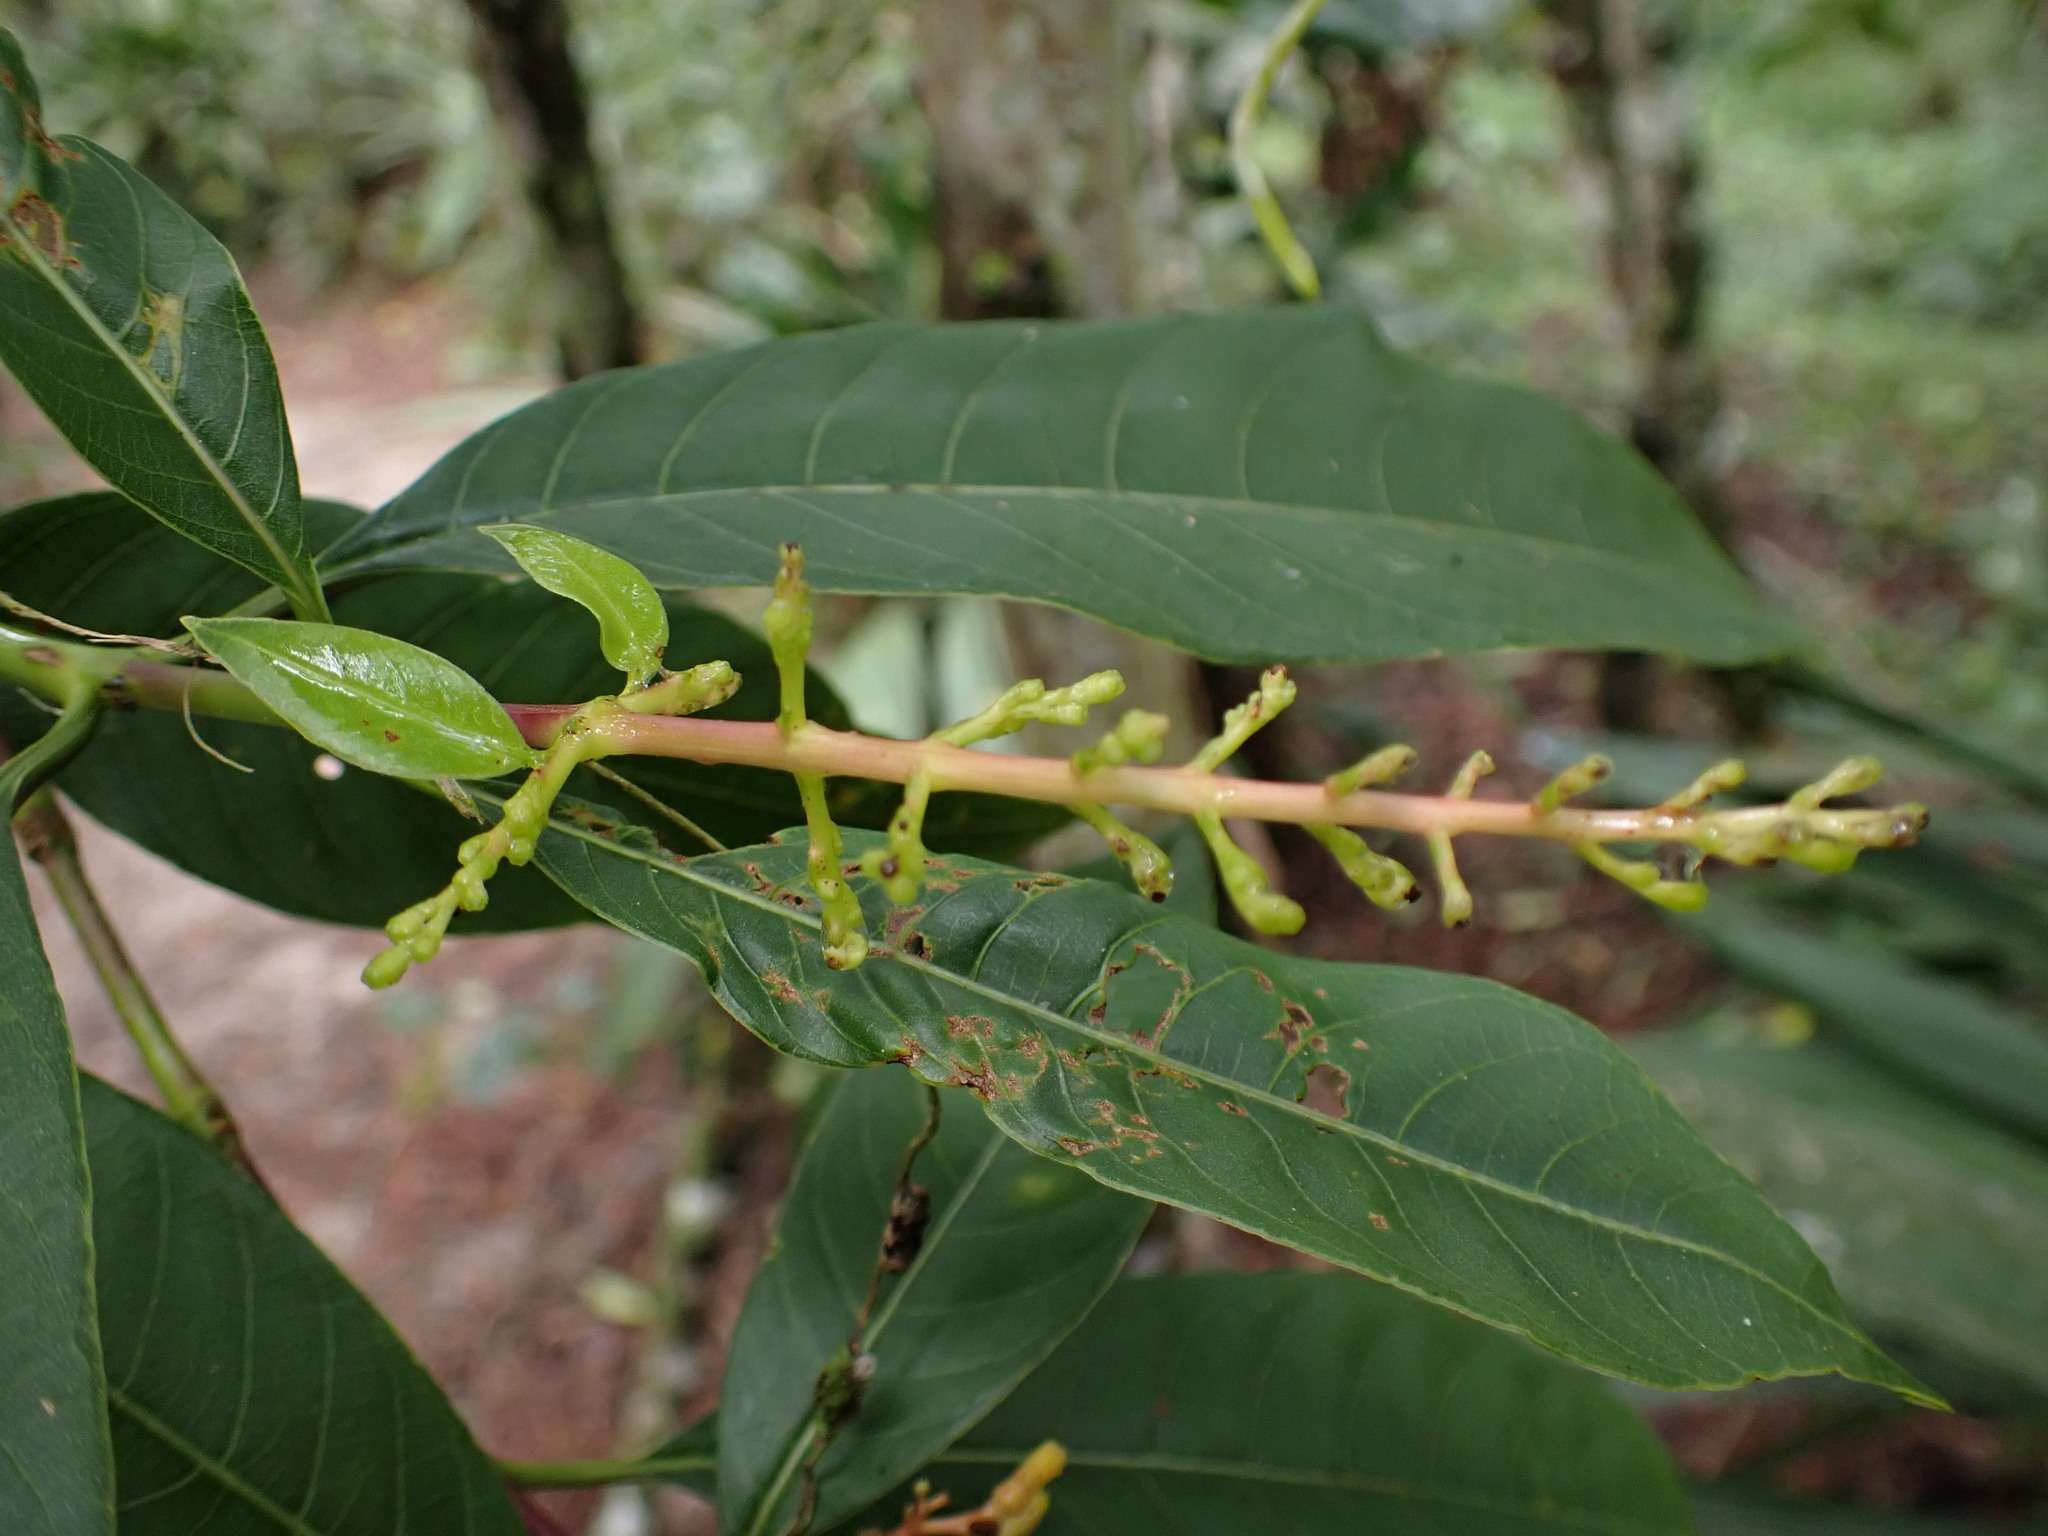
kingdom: Plantae
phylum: Tracheophyta
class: Magnoliopsida
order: Gentianales
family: Rubiaceae
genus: Palicourea
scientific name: Palicourea thyrsiflora
